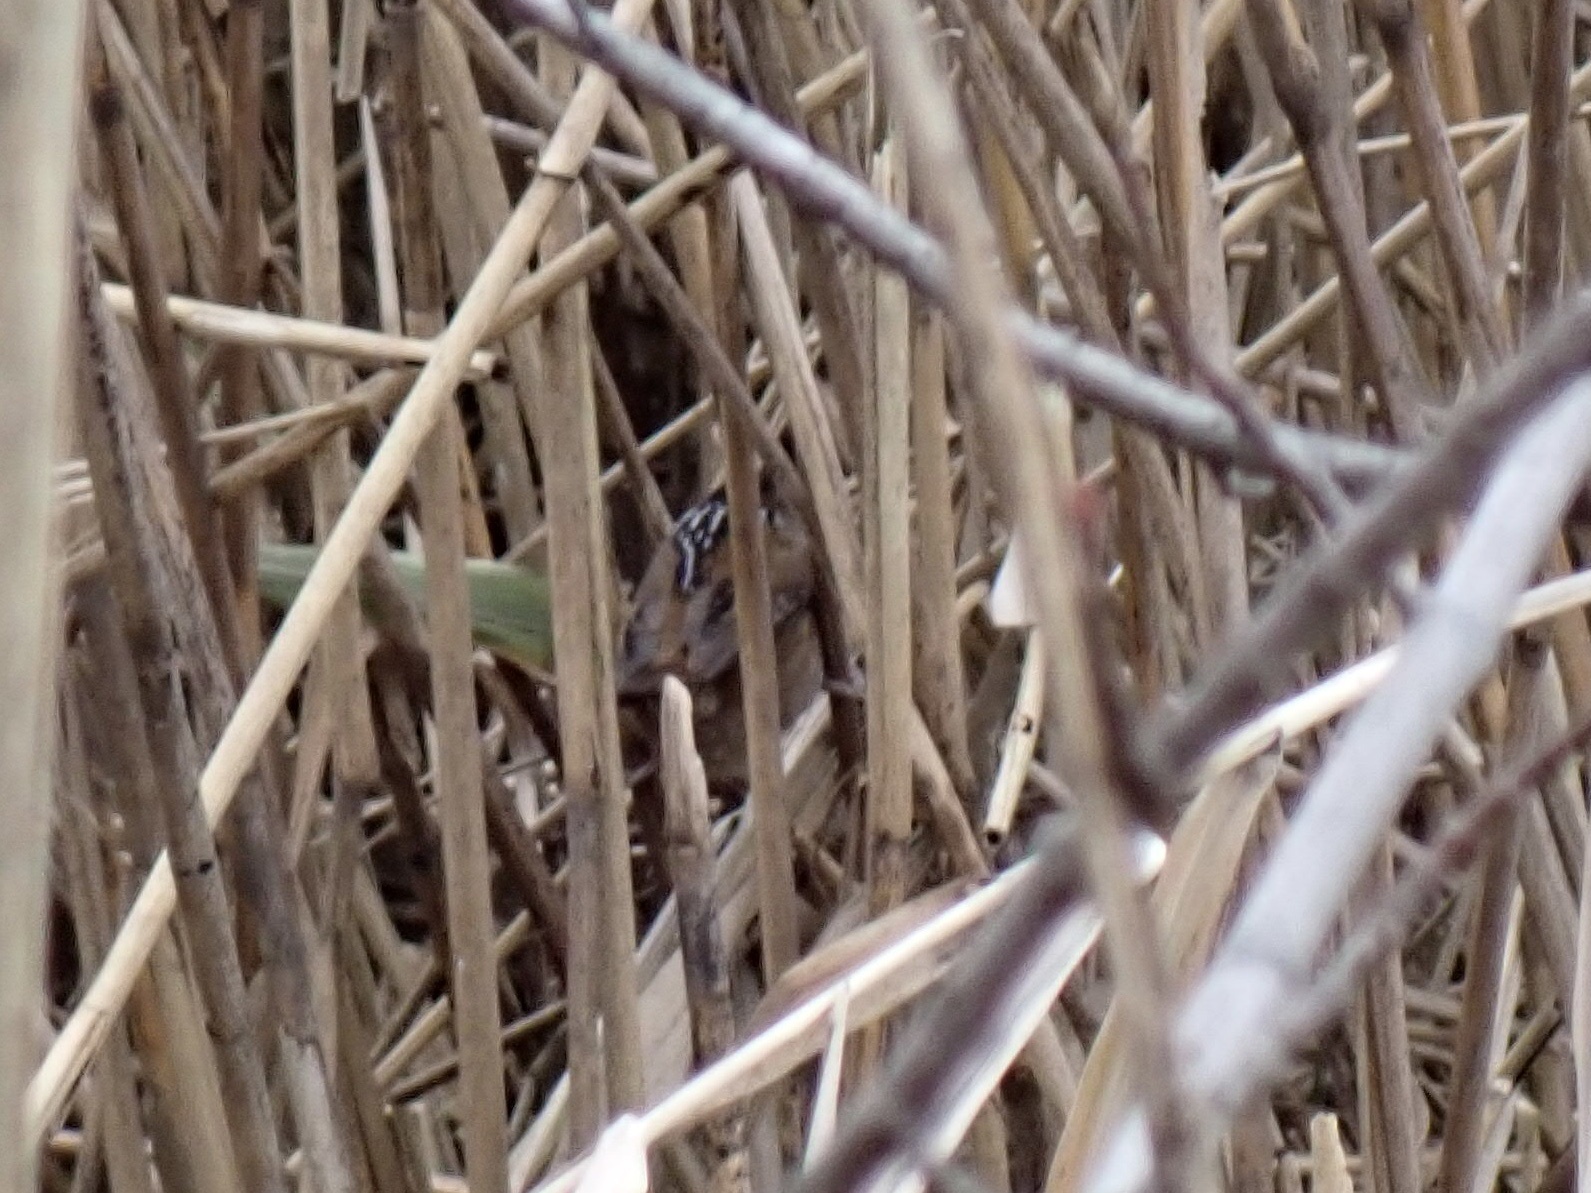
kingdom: Animalia
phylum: Chordata
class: Aves
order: Passeriformes
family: Troglodytidae
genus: Cistothorus
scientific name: Cistothorus palustris
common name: Marsh wren
